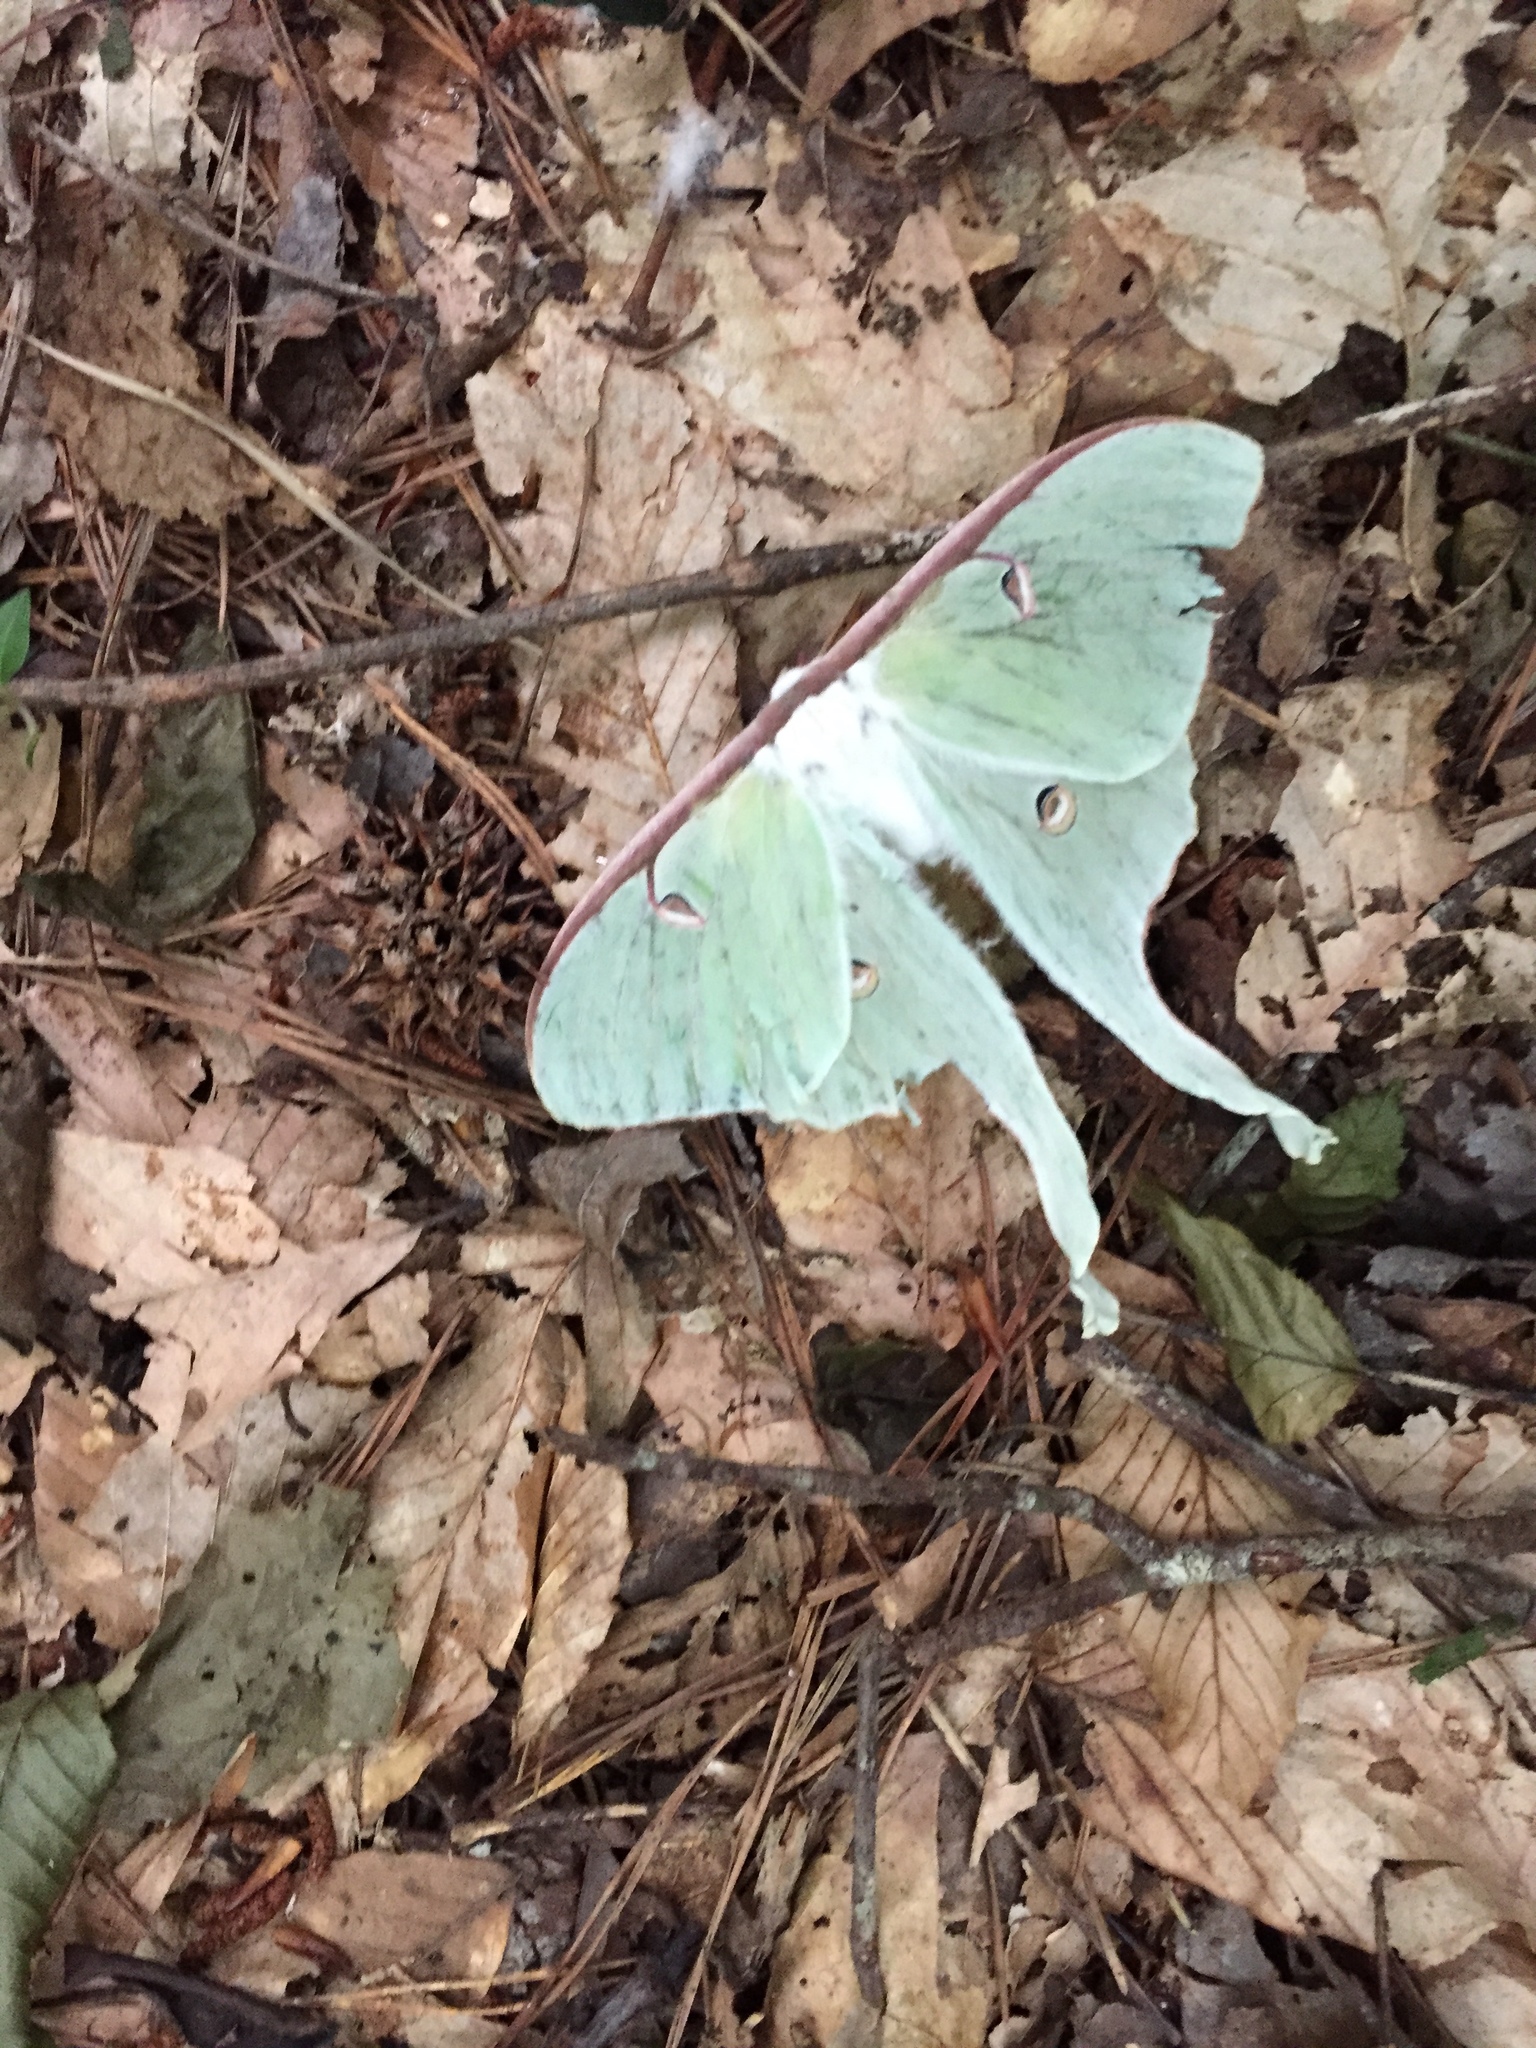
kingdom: Animalia
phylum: Arthropoda
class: Insecta
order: Lepidoptera
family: Saturniidae
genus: Actias
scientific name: Actias luna
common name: Luna moth
